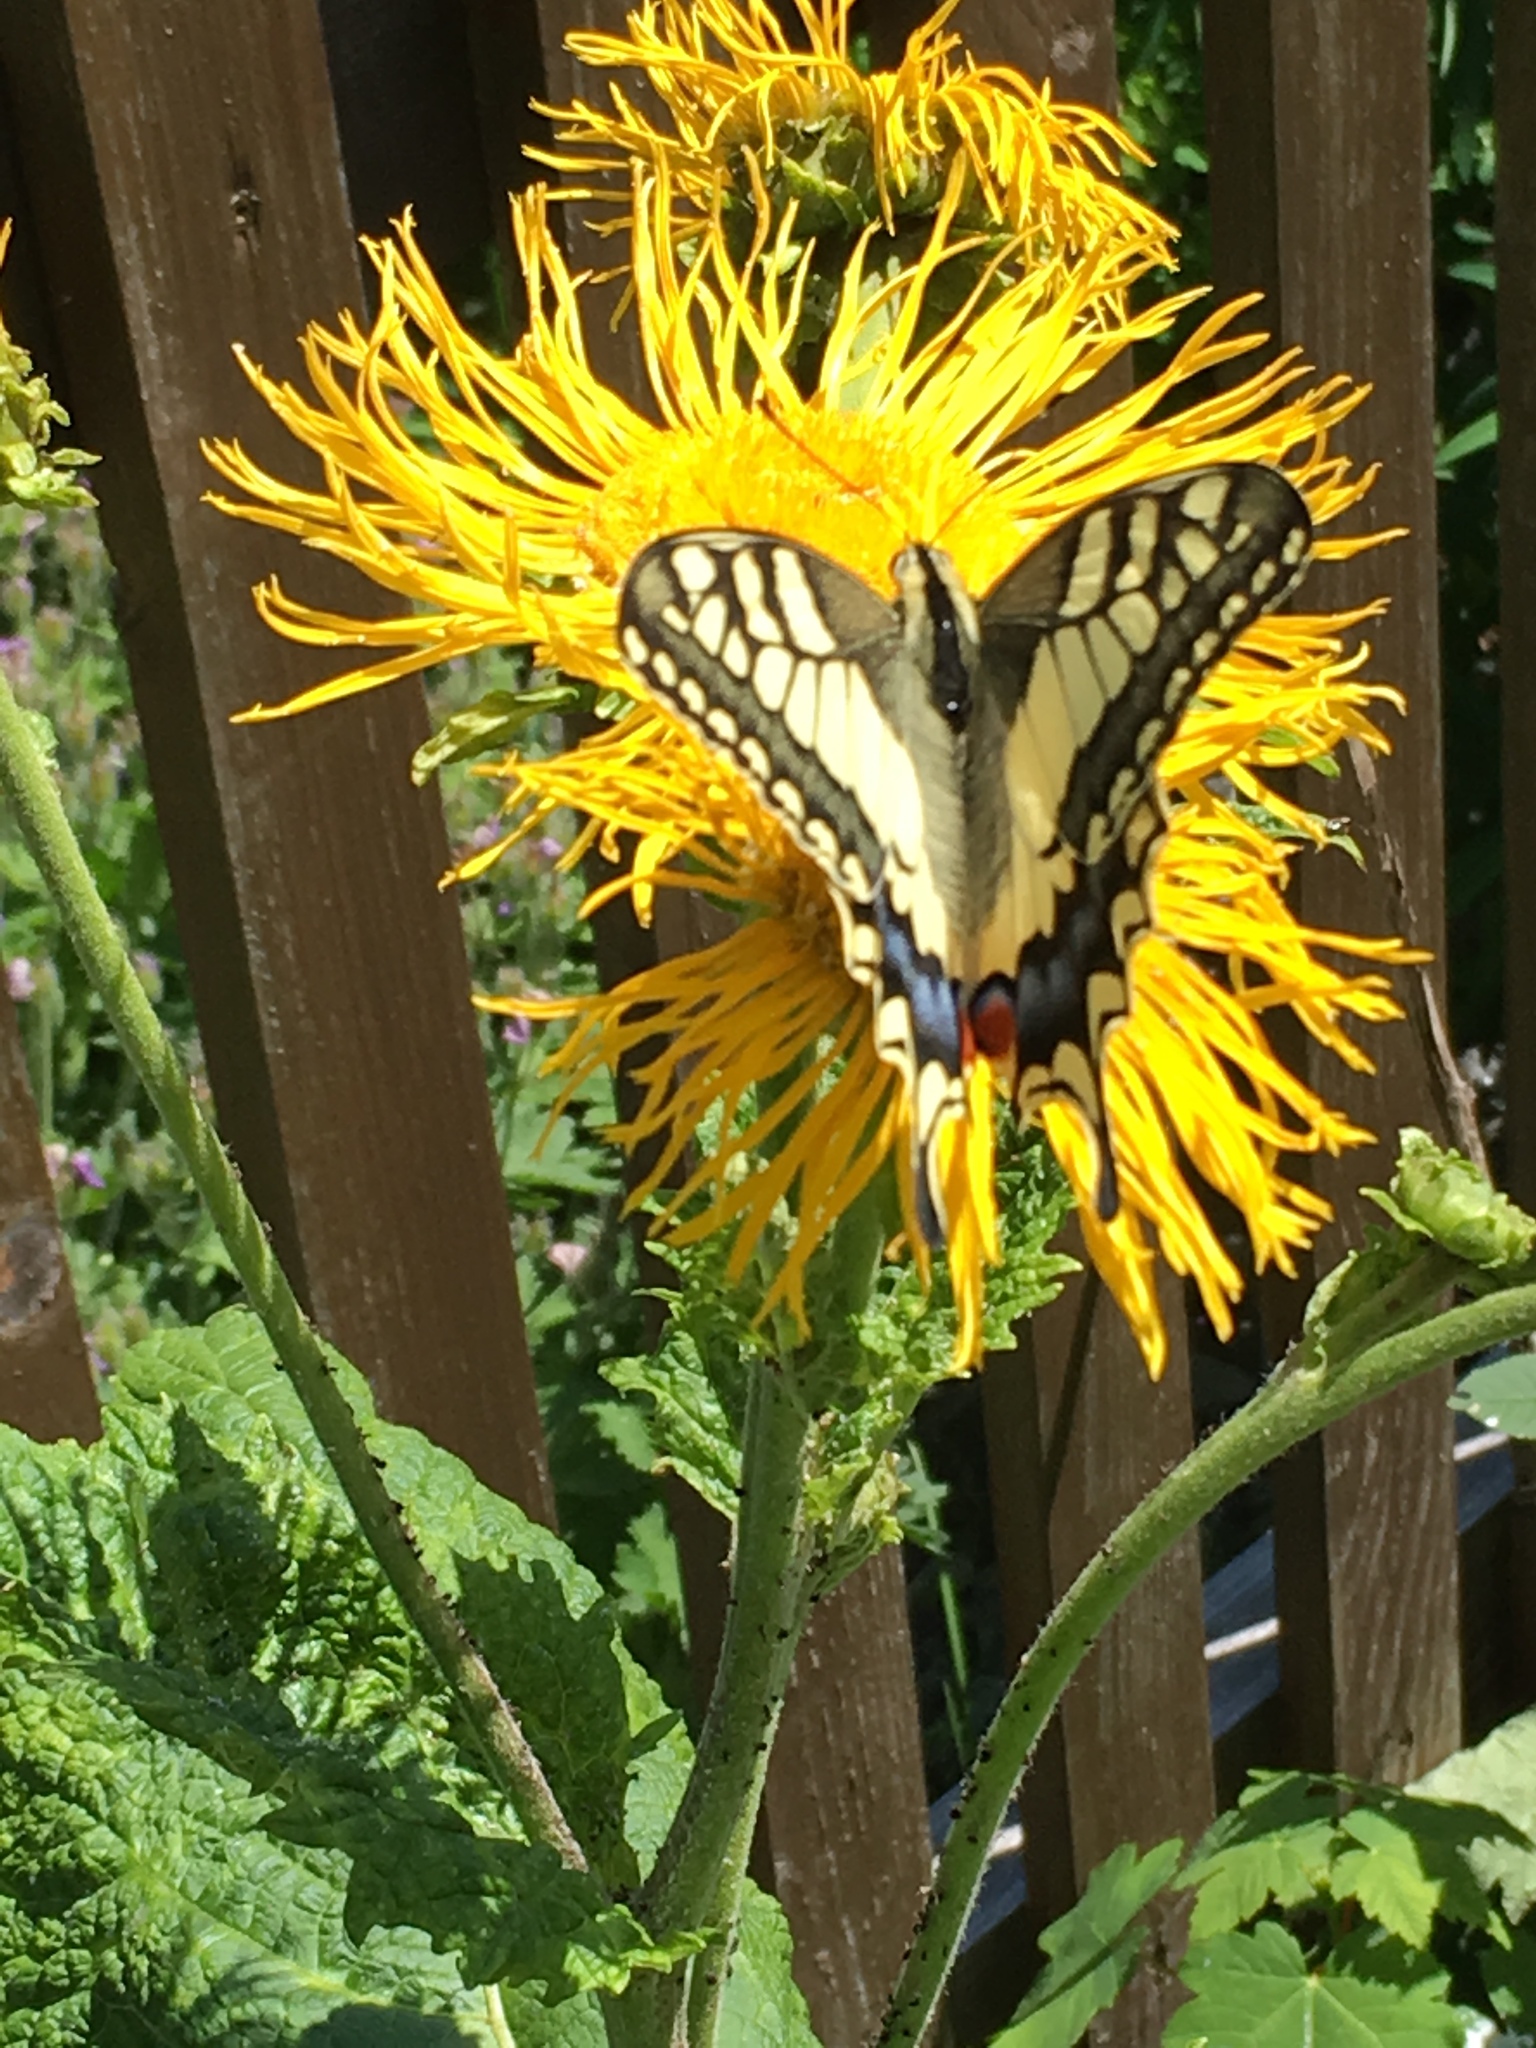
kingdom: Animalia
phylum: Arthropoda
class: Insecta
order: Lepidoptera
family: Papilionidae
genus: Papilio
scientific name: Papilio machaon
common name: Swallowtail
